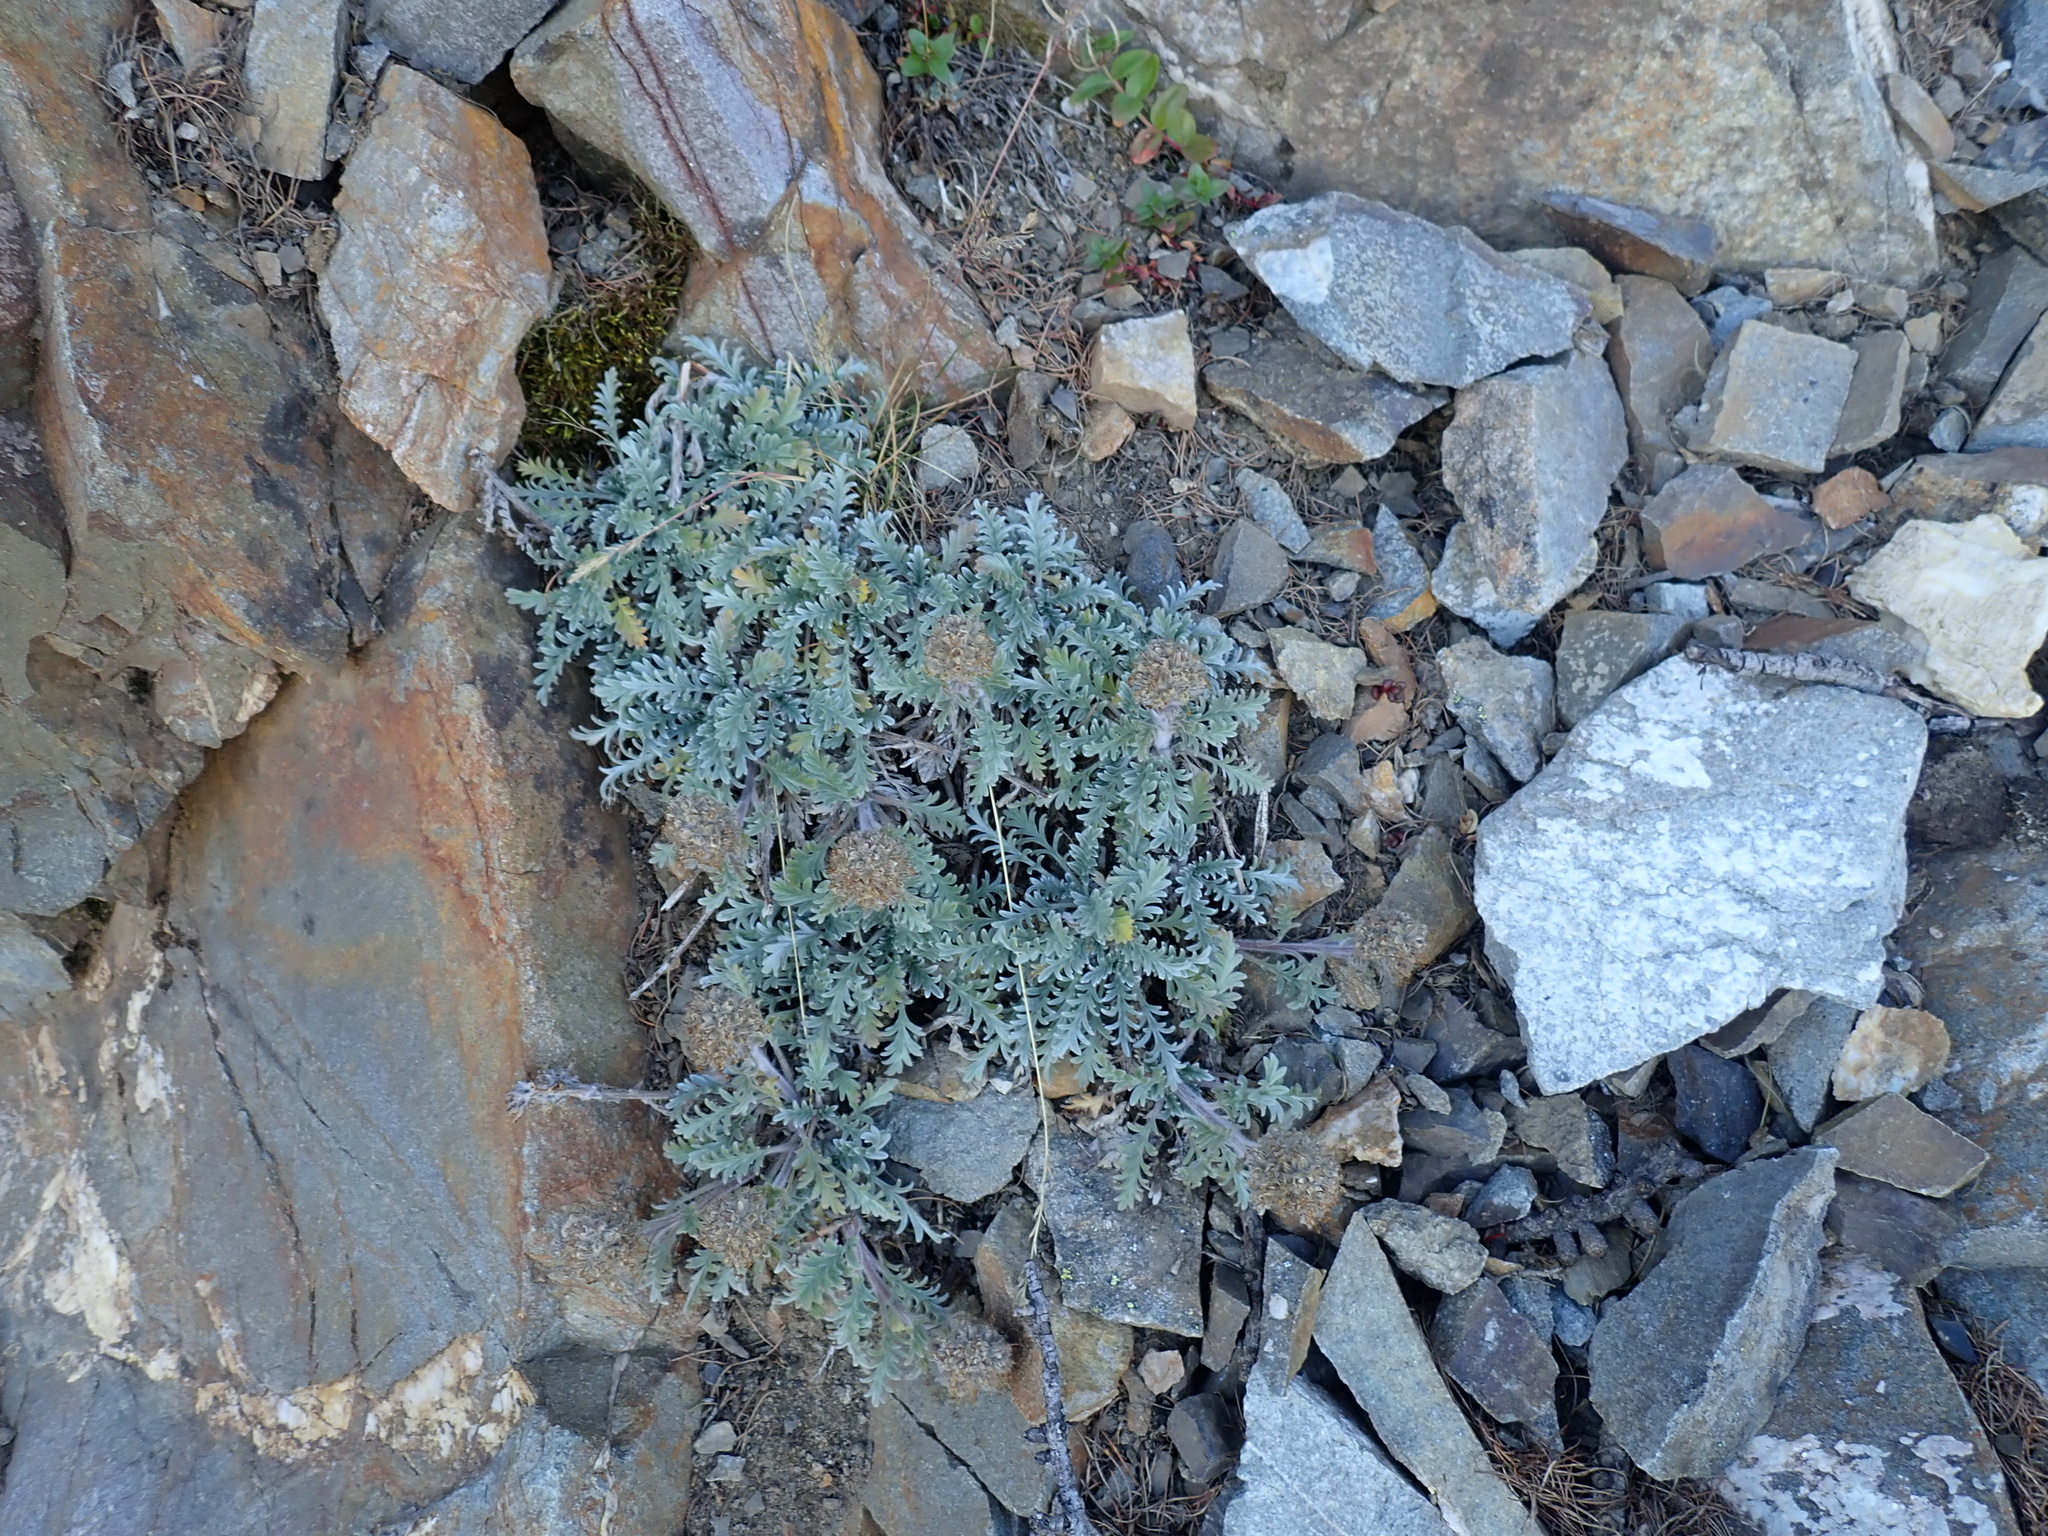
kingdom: Plantae
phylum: Tracheophyta
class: Magnoliopsida
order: Boraginales
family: Hydrophyllaceae
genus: Phacelia
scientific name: Phacelia sericea
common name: Silky phacelia
